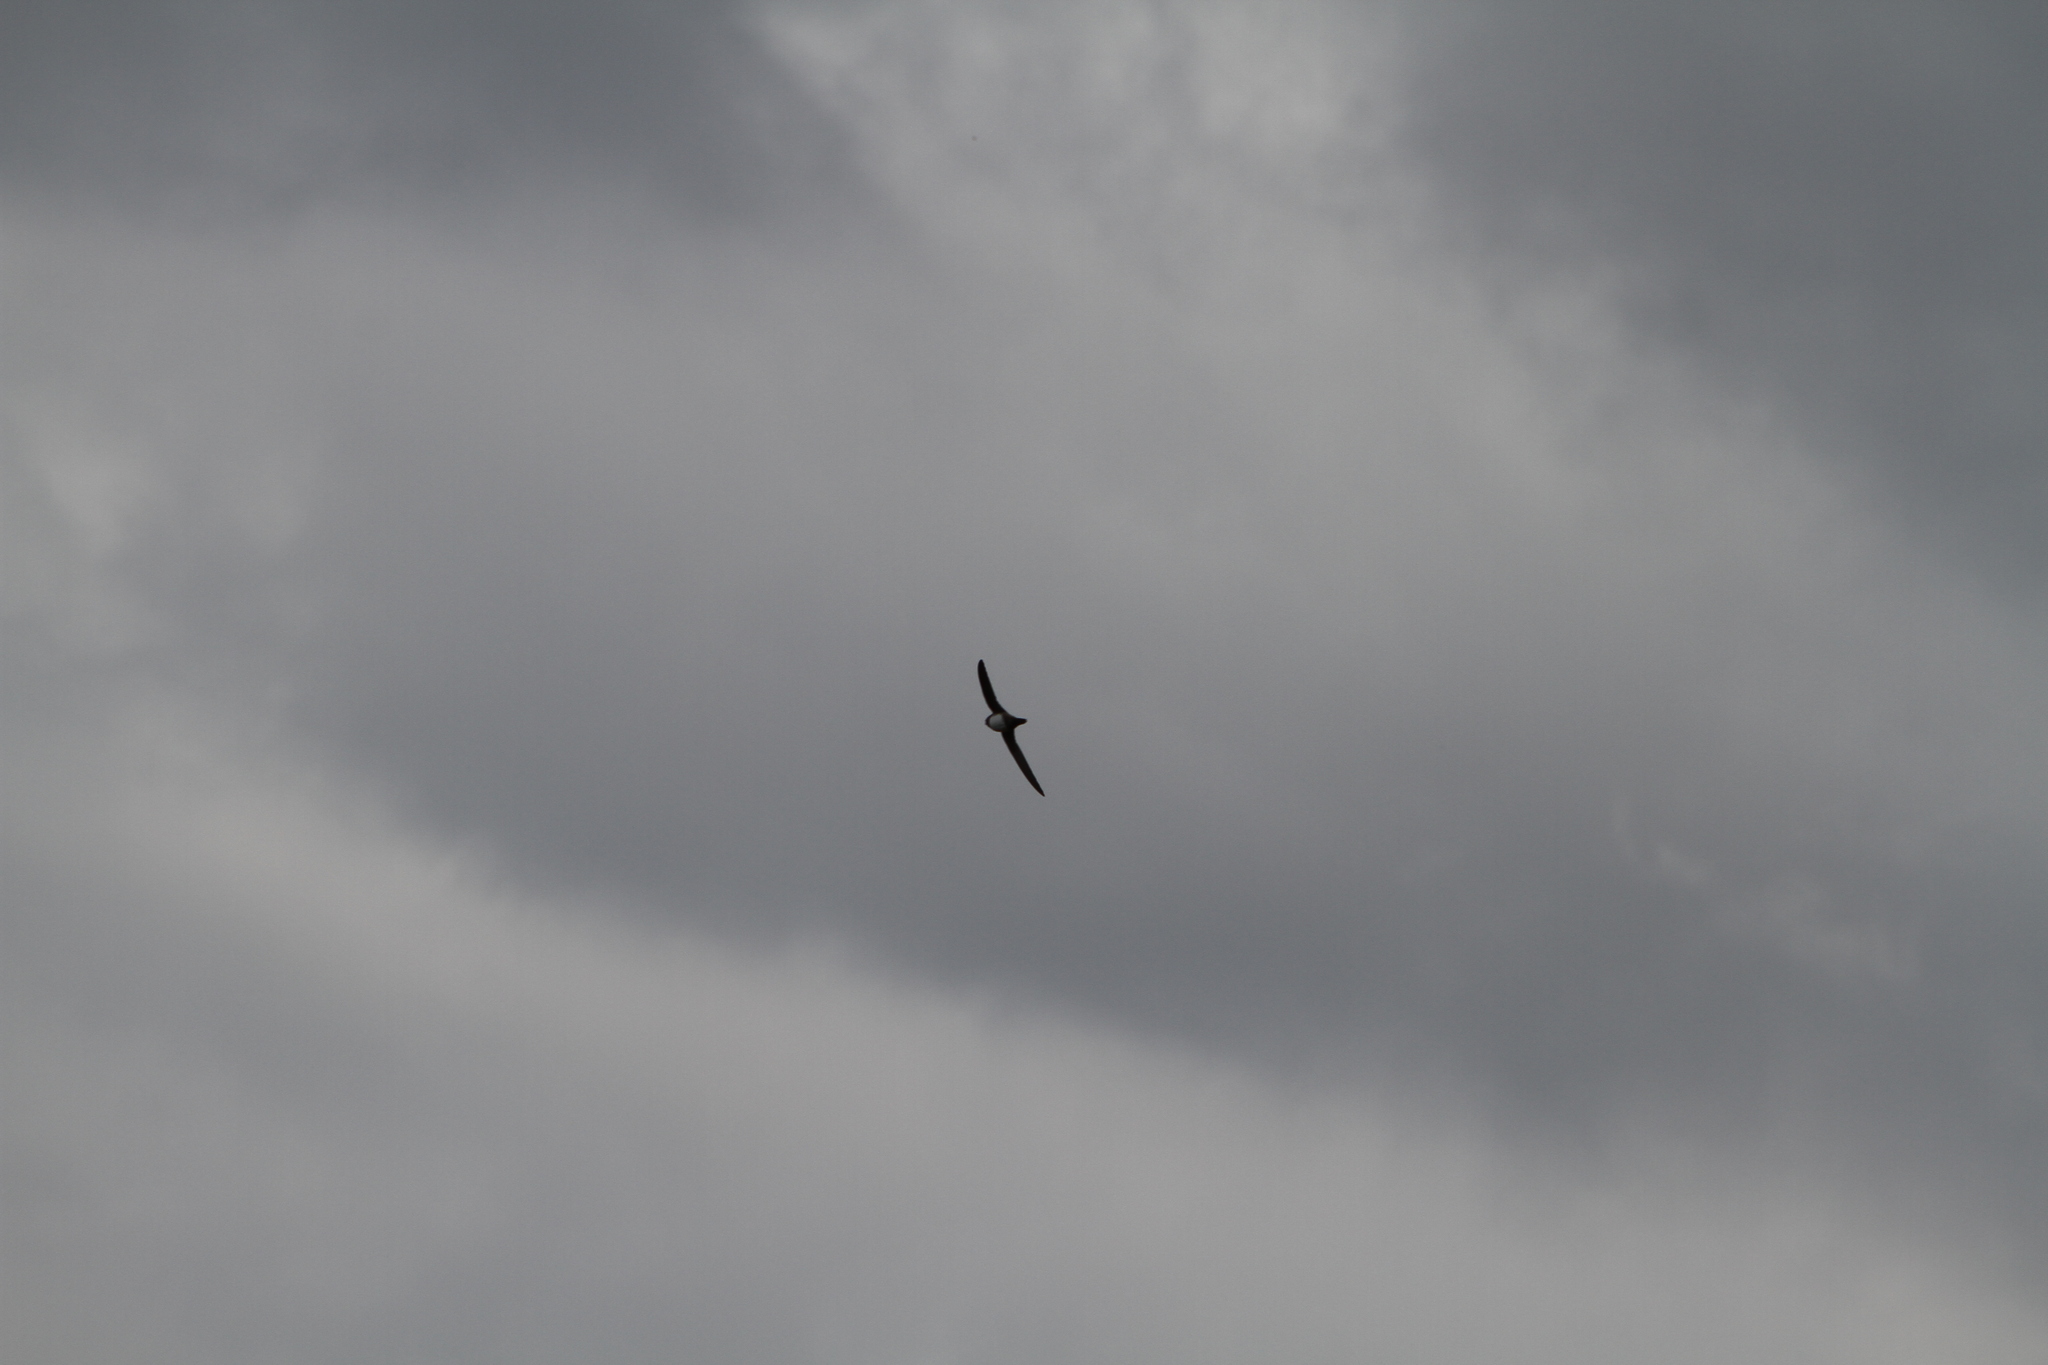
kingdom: Animalia
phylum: Chordata
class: Aves
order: Apodiformes
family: Apodidae
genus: Tachymarptis
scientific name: Tachymarptis melba
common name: Alpine swift
